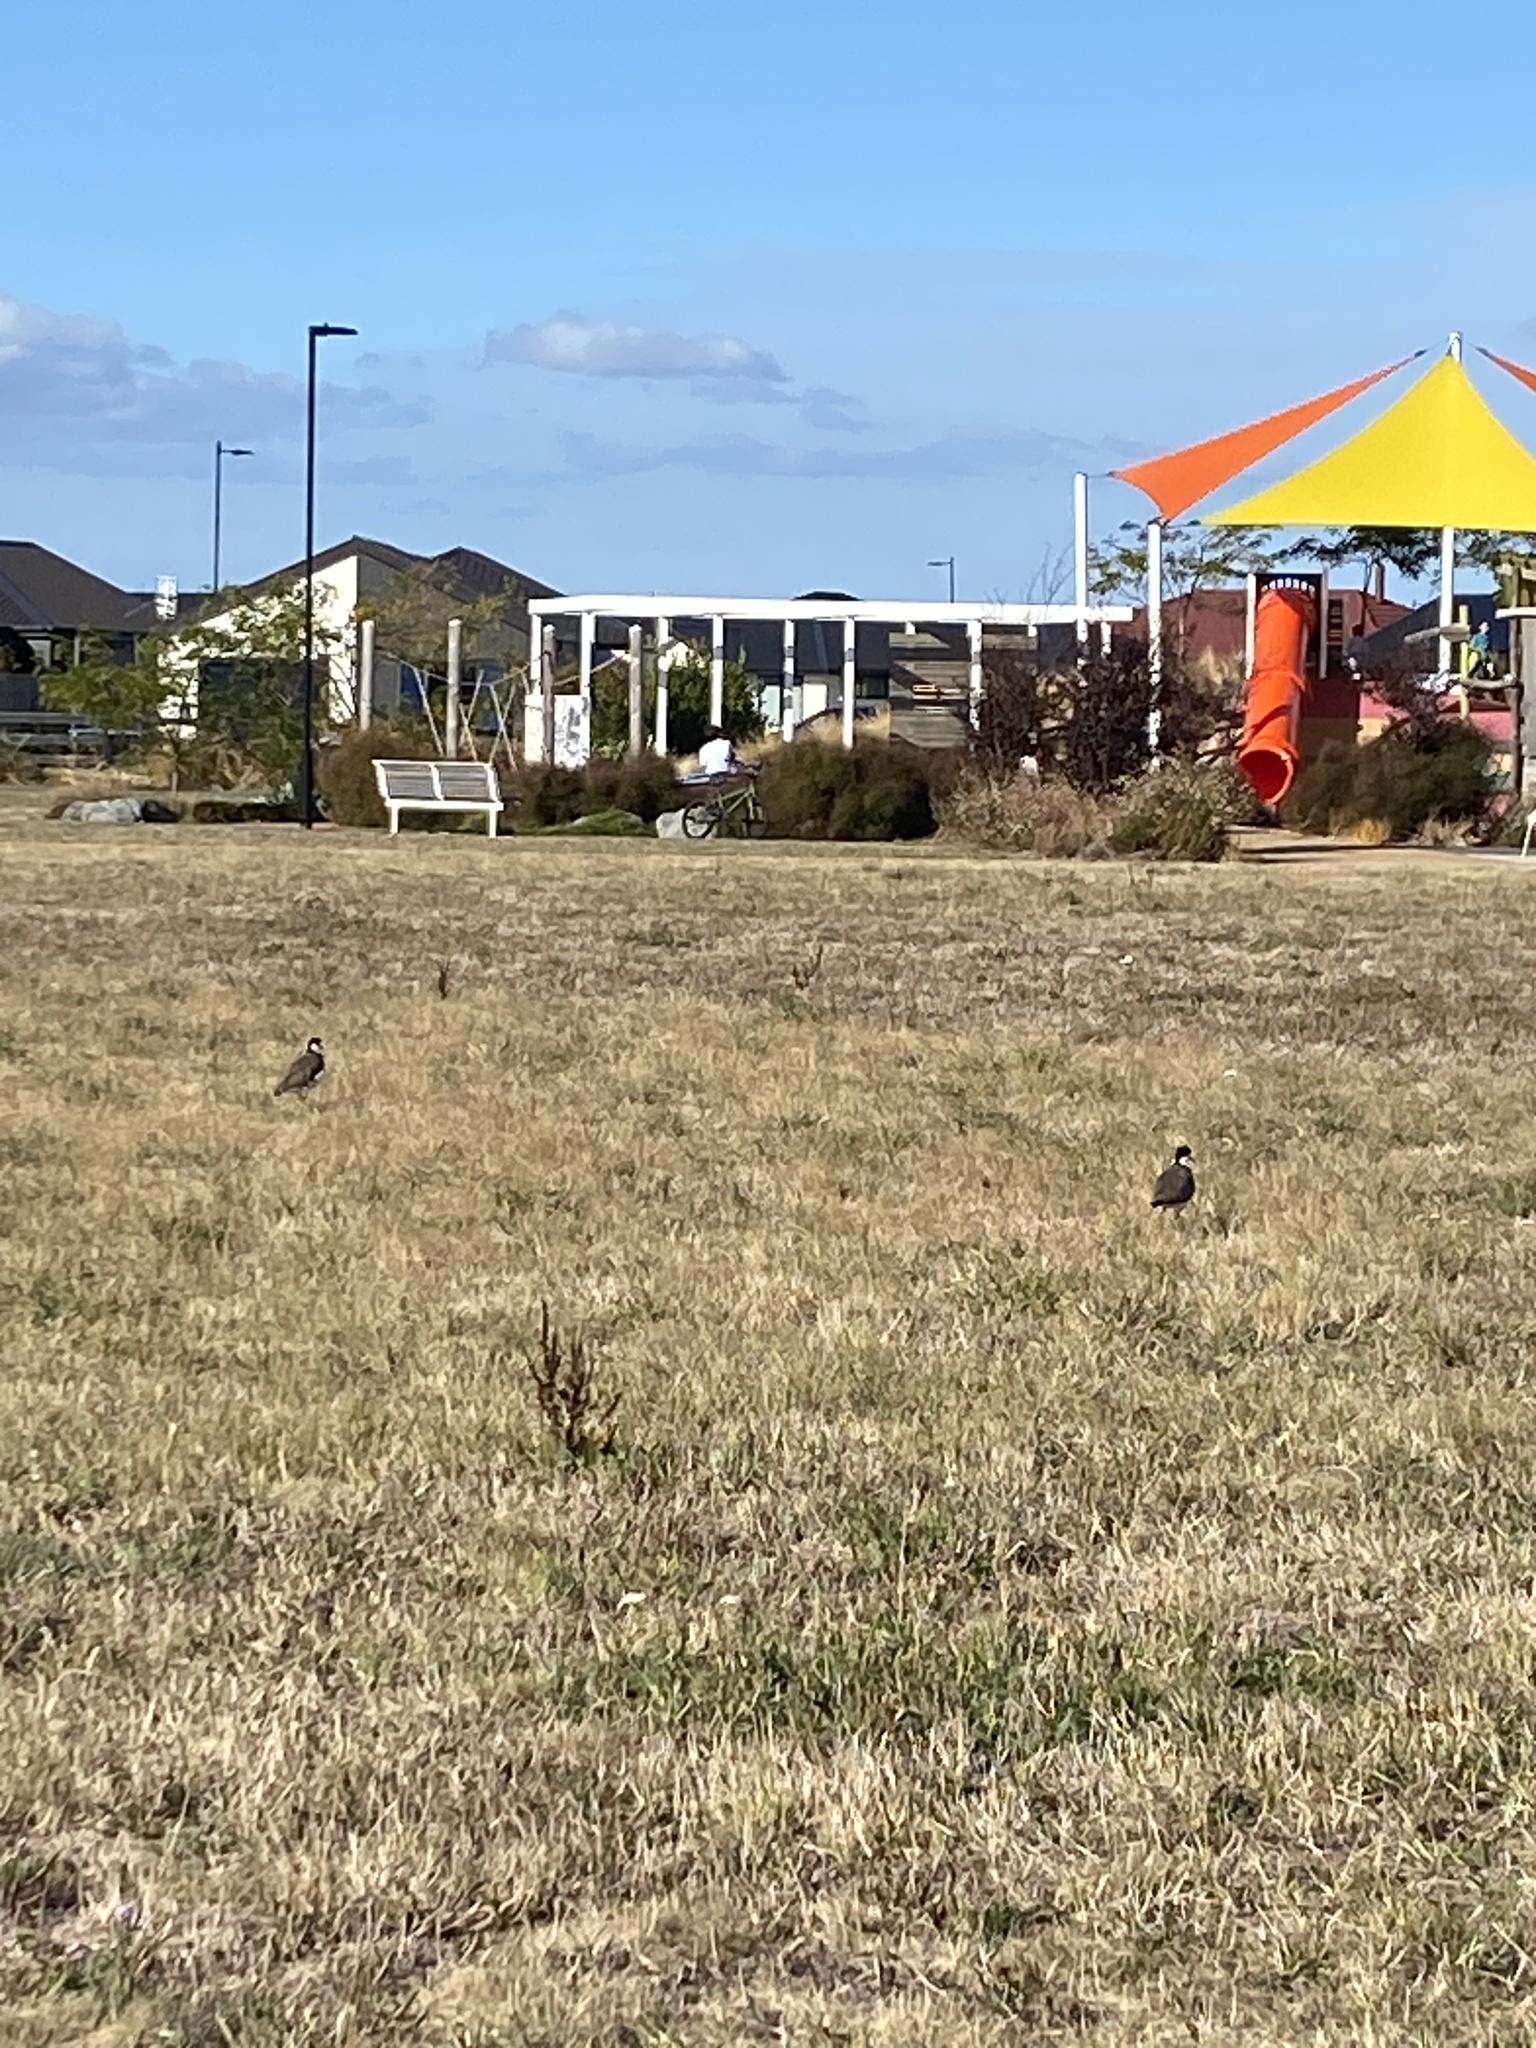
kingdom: Animalia
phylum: Chordata
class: Aves
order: Charadriiformes
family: Charadriidae
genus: Vanellus
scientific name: Vanellus miles
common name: Masked lapwing
